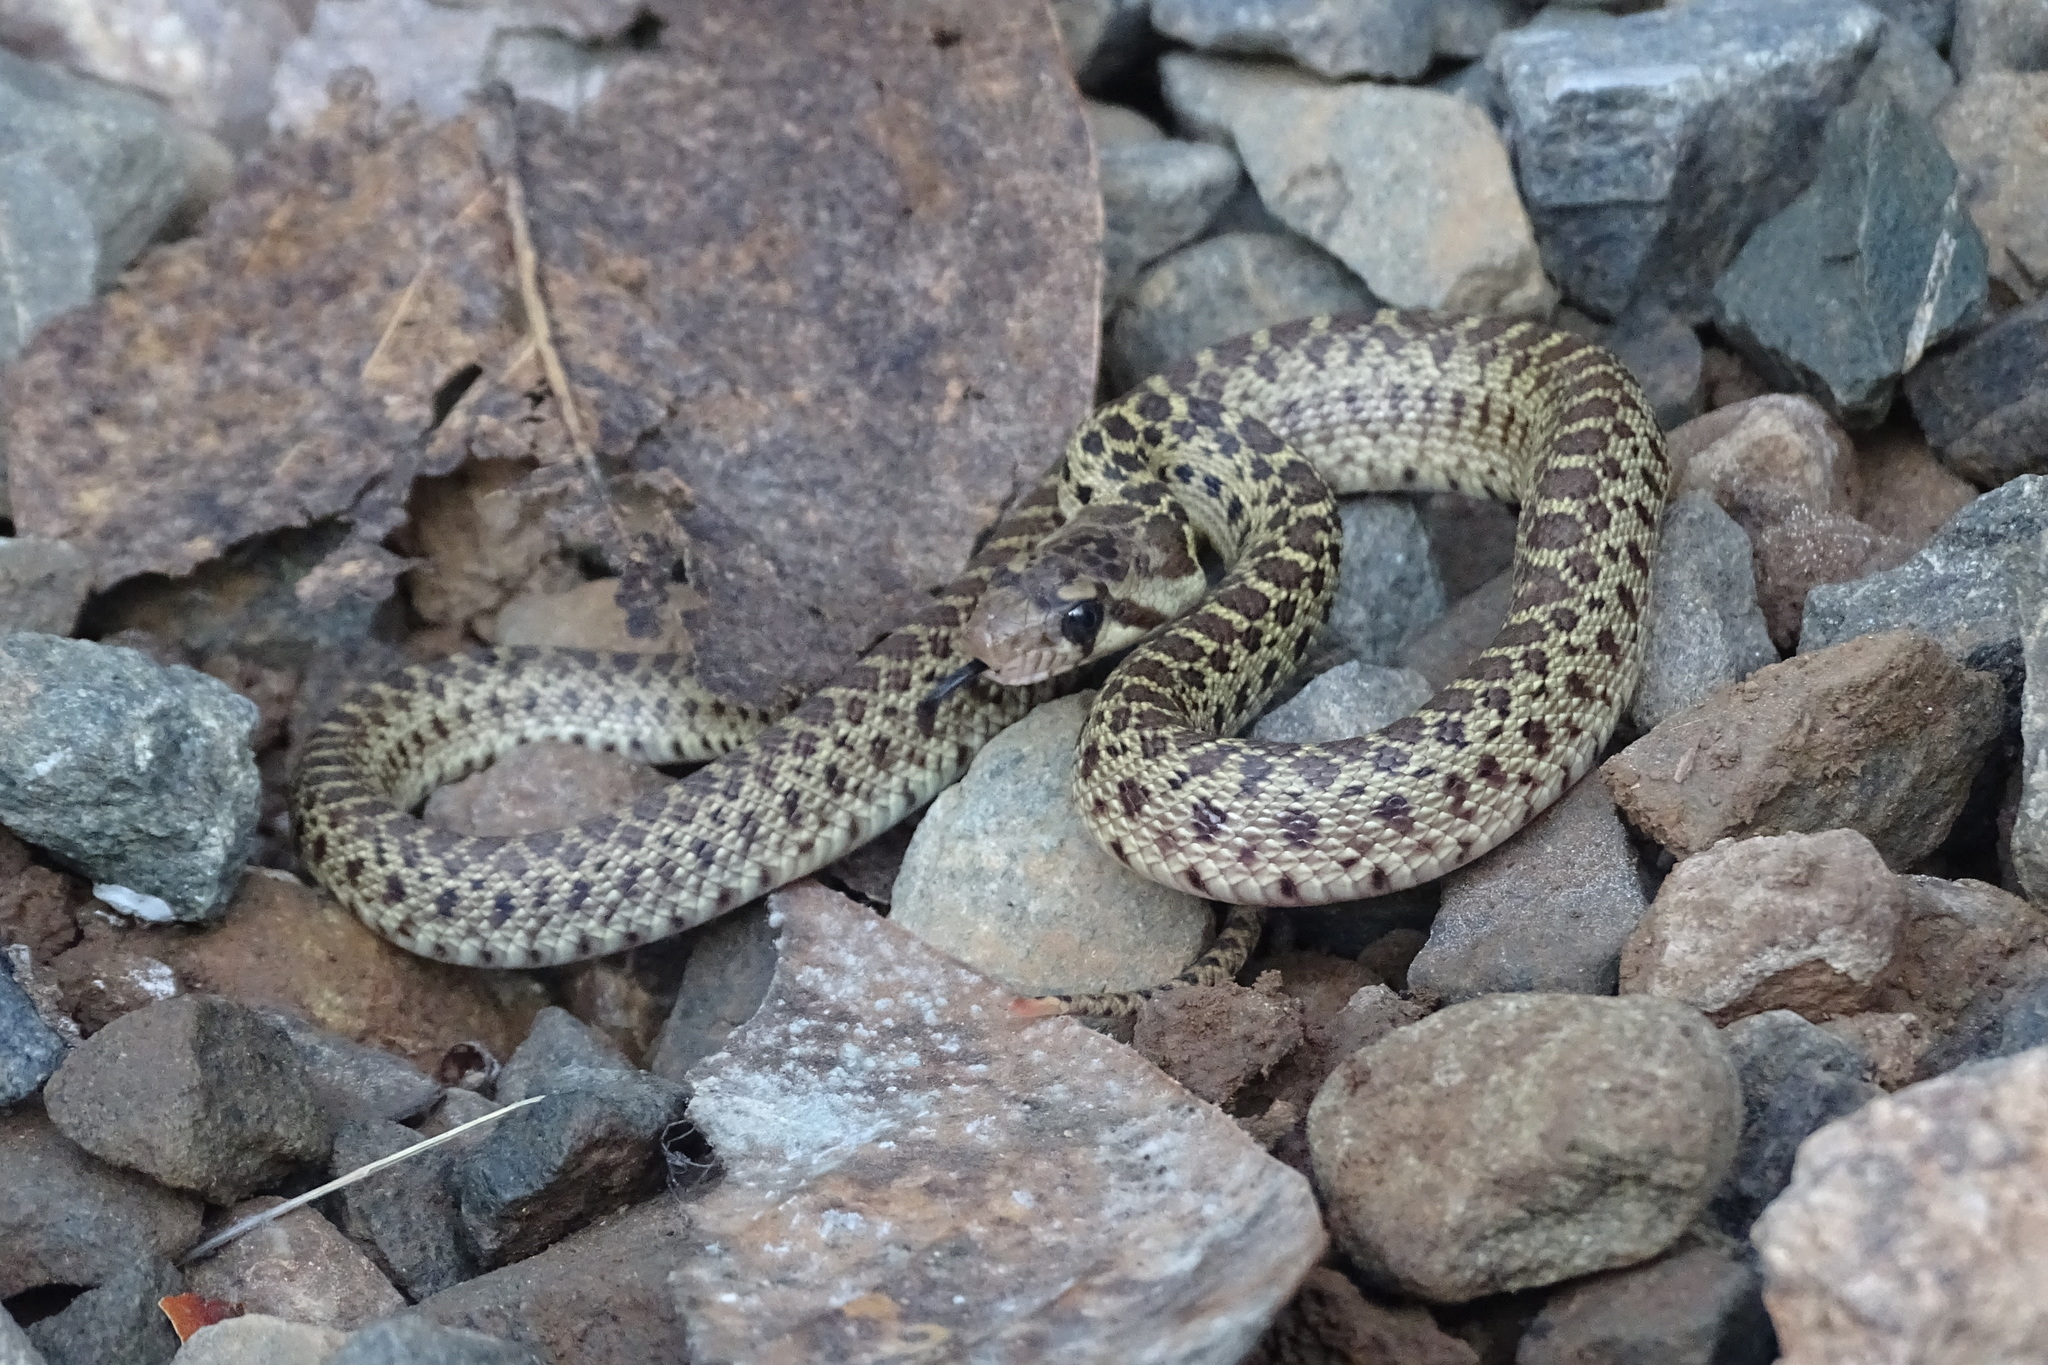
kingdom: Animalia
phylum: Chordata
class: Squamata
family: Colubridae
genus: Pituophis
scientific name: Pituophis catenifer
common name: Gopher snake
